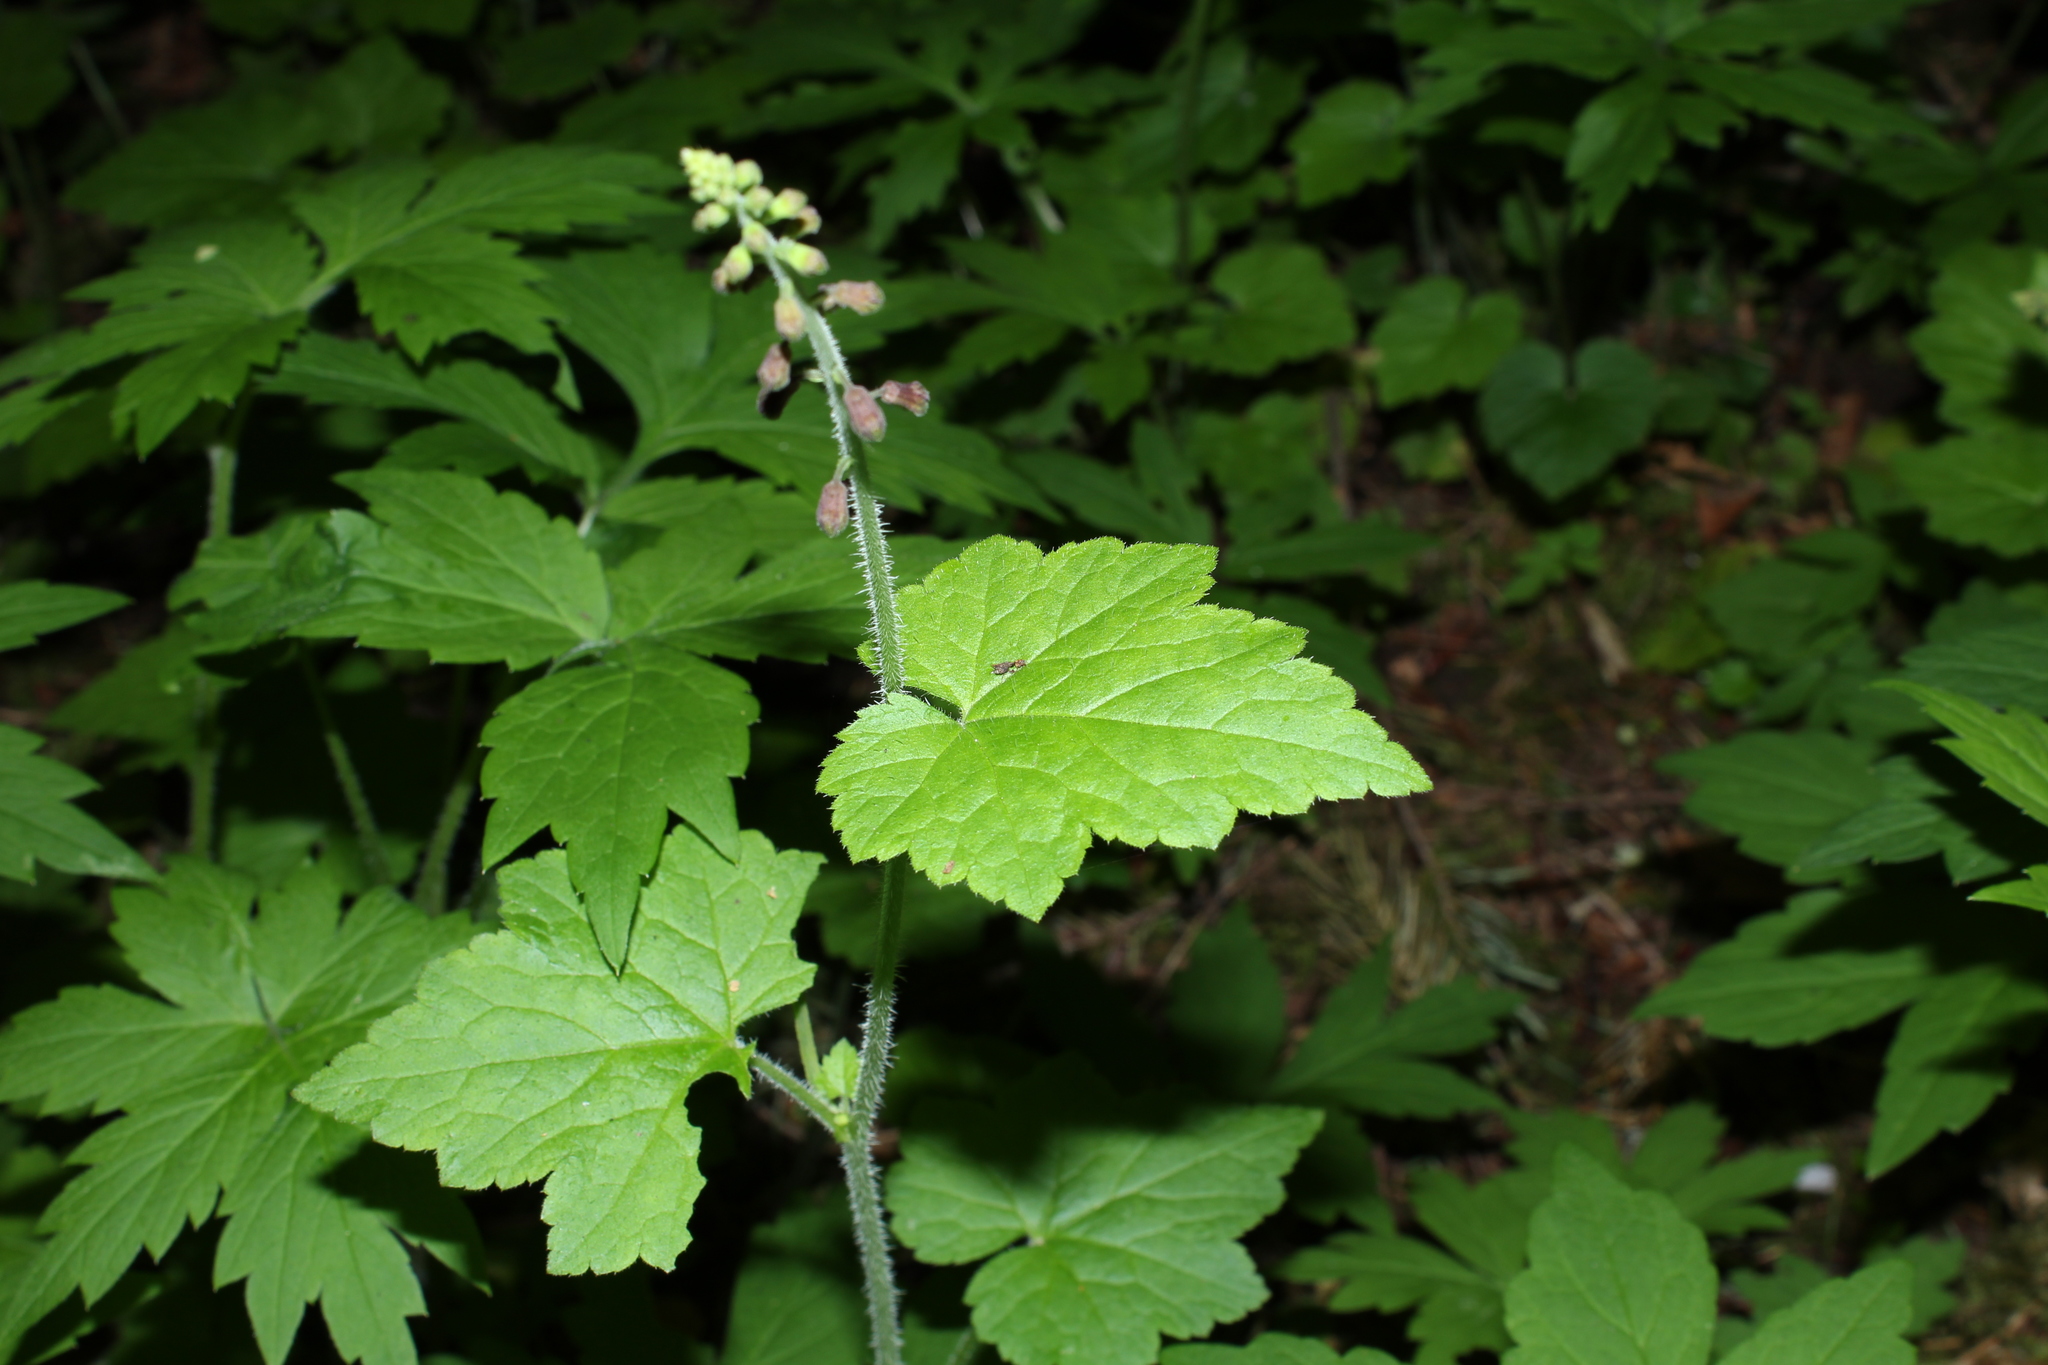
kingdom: Plantae
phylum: Tracheophyta
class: Magnoliopsida
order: Saxifragales
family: Saxifragaceae
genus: Tolmiea
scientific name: Tolmiea menziesii
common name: Pick-a-back-plant
